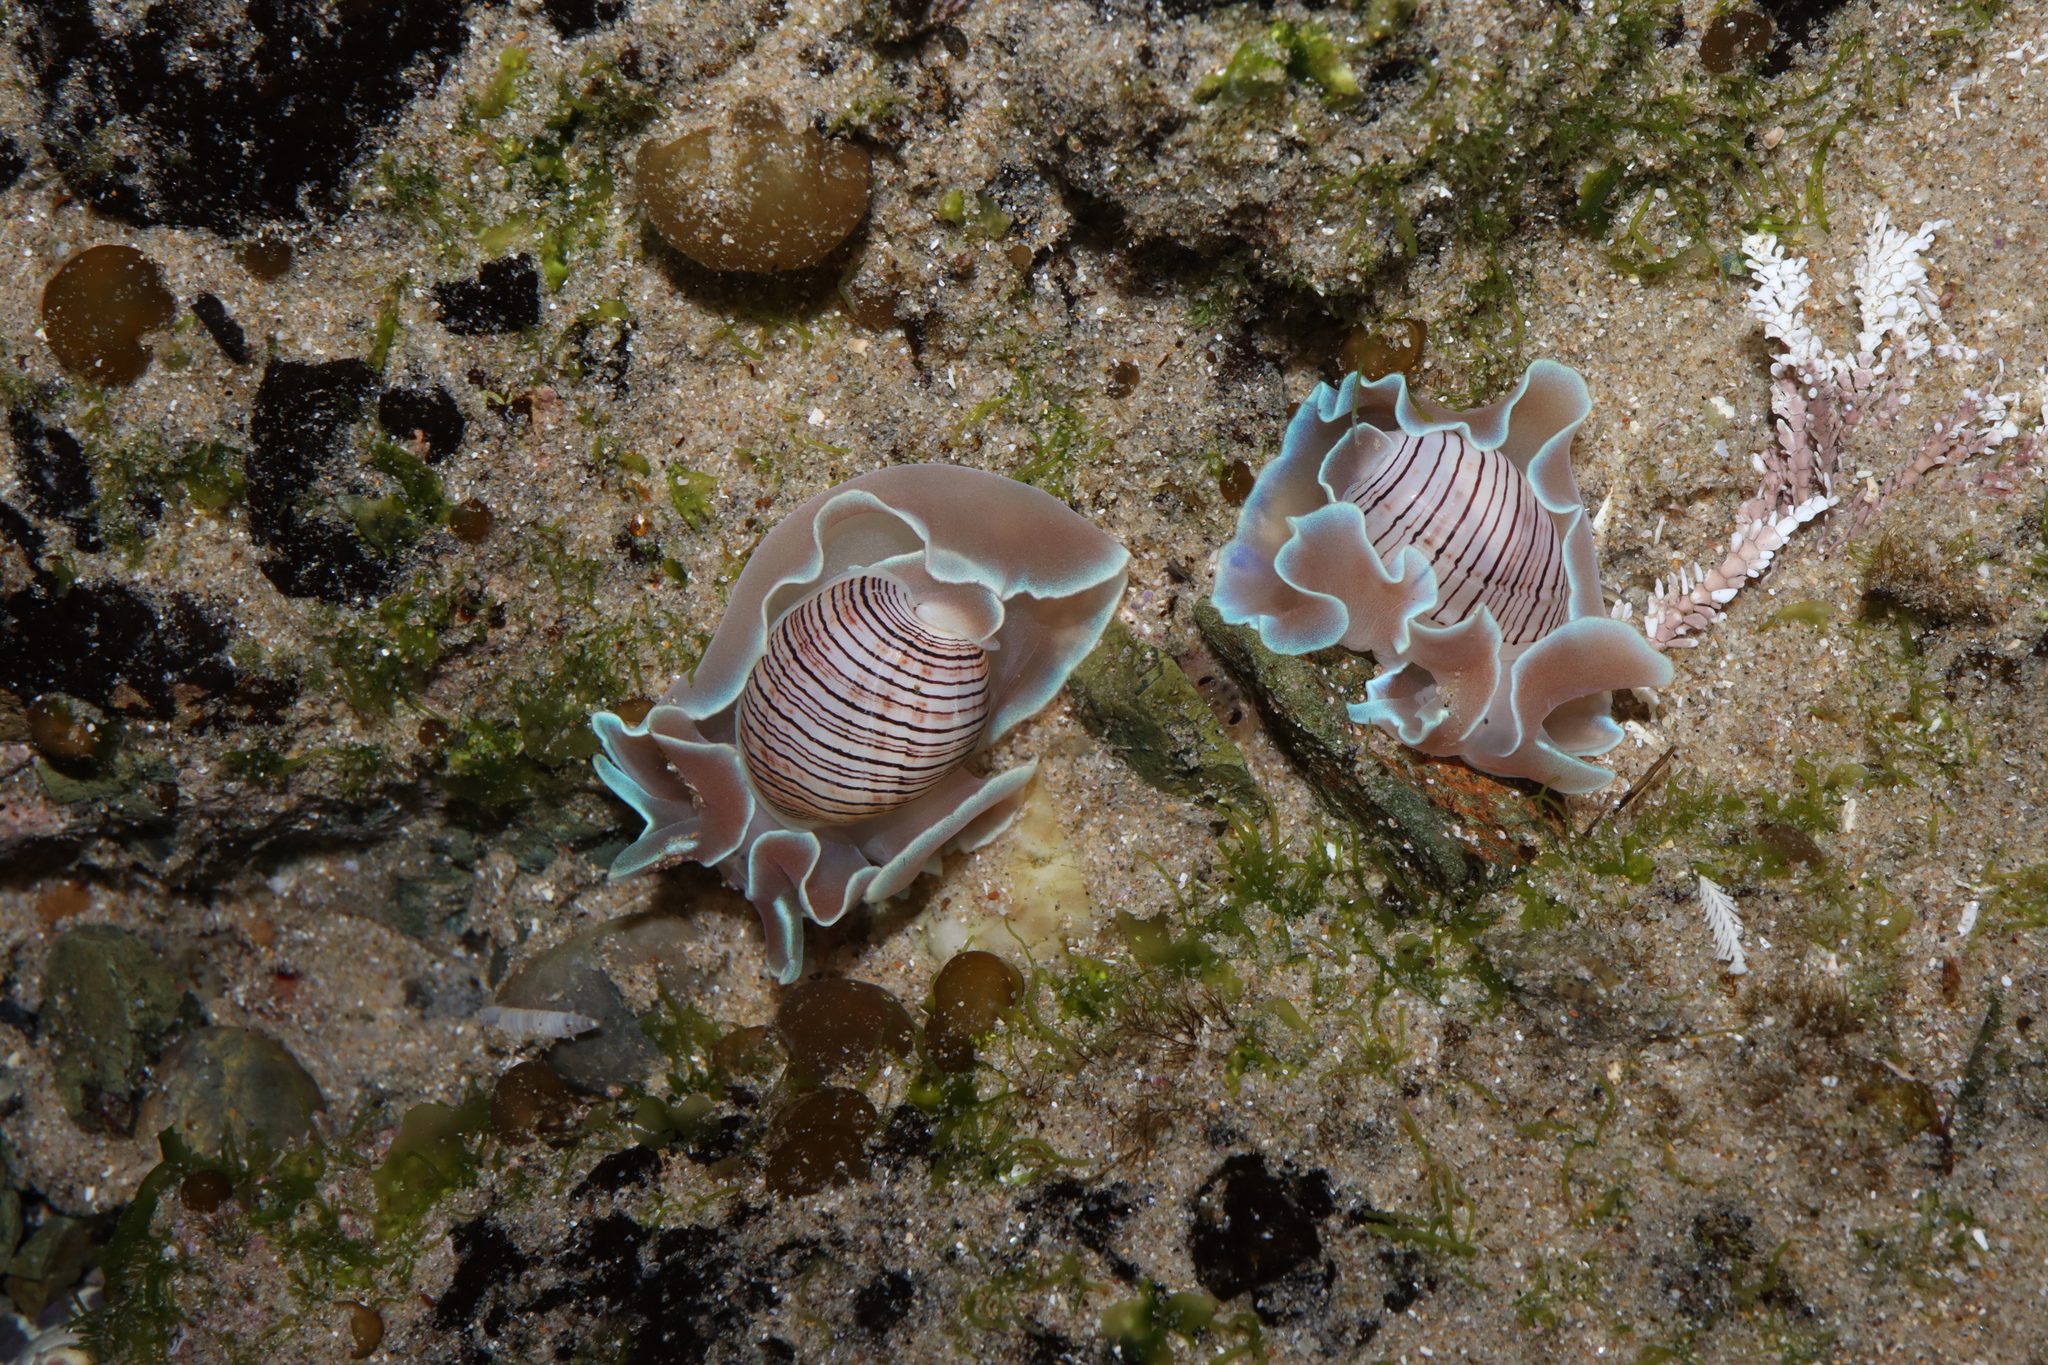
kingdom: Animalia
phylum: Mollusca
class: Gastropoda
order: Cephalaspidea
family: Aplustridae
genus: Hydatina
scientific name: Hydatina physis
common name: Brown-line paperbubble
